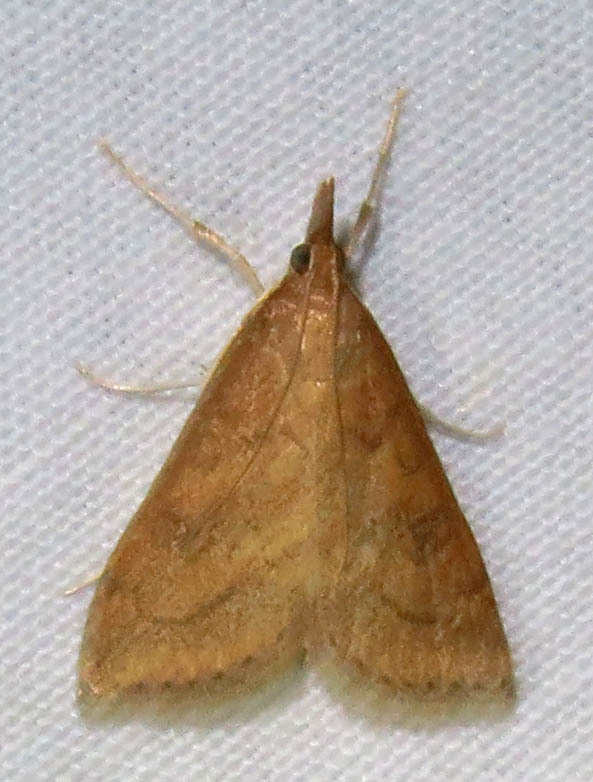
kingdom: Animalia
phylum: Arthropoda
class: Insecta
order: Lepidoptera
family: Crambidae
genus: Udea
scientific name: Udea rubigalis
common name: Celery leaftier moth
